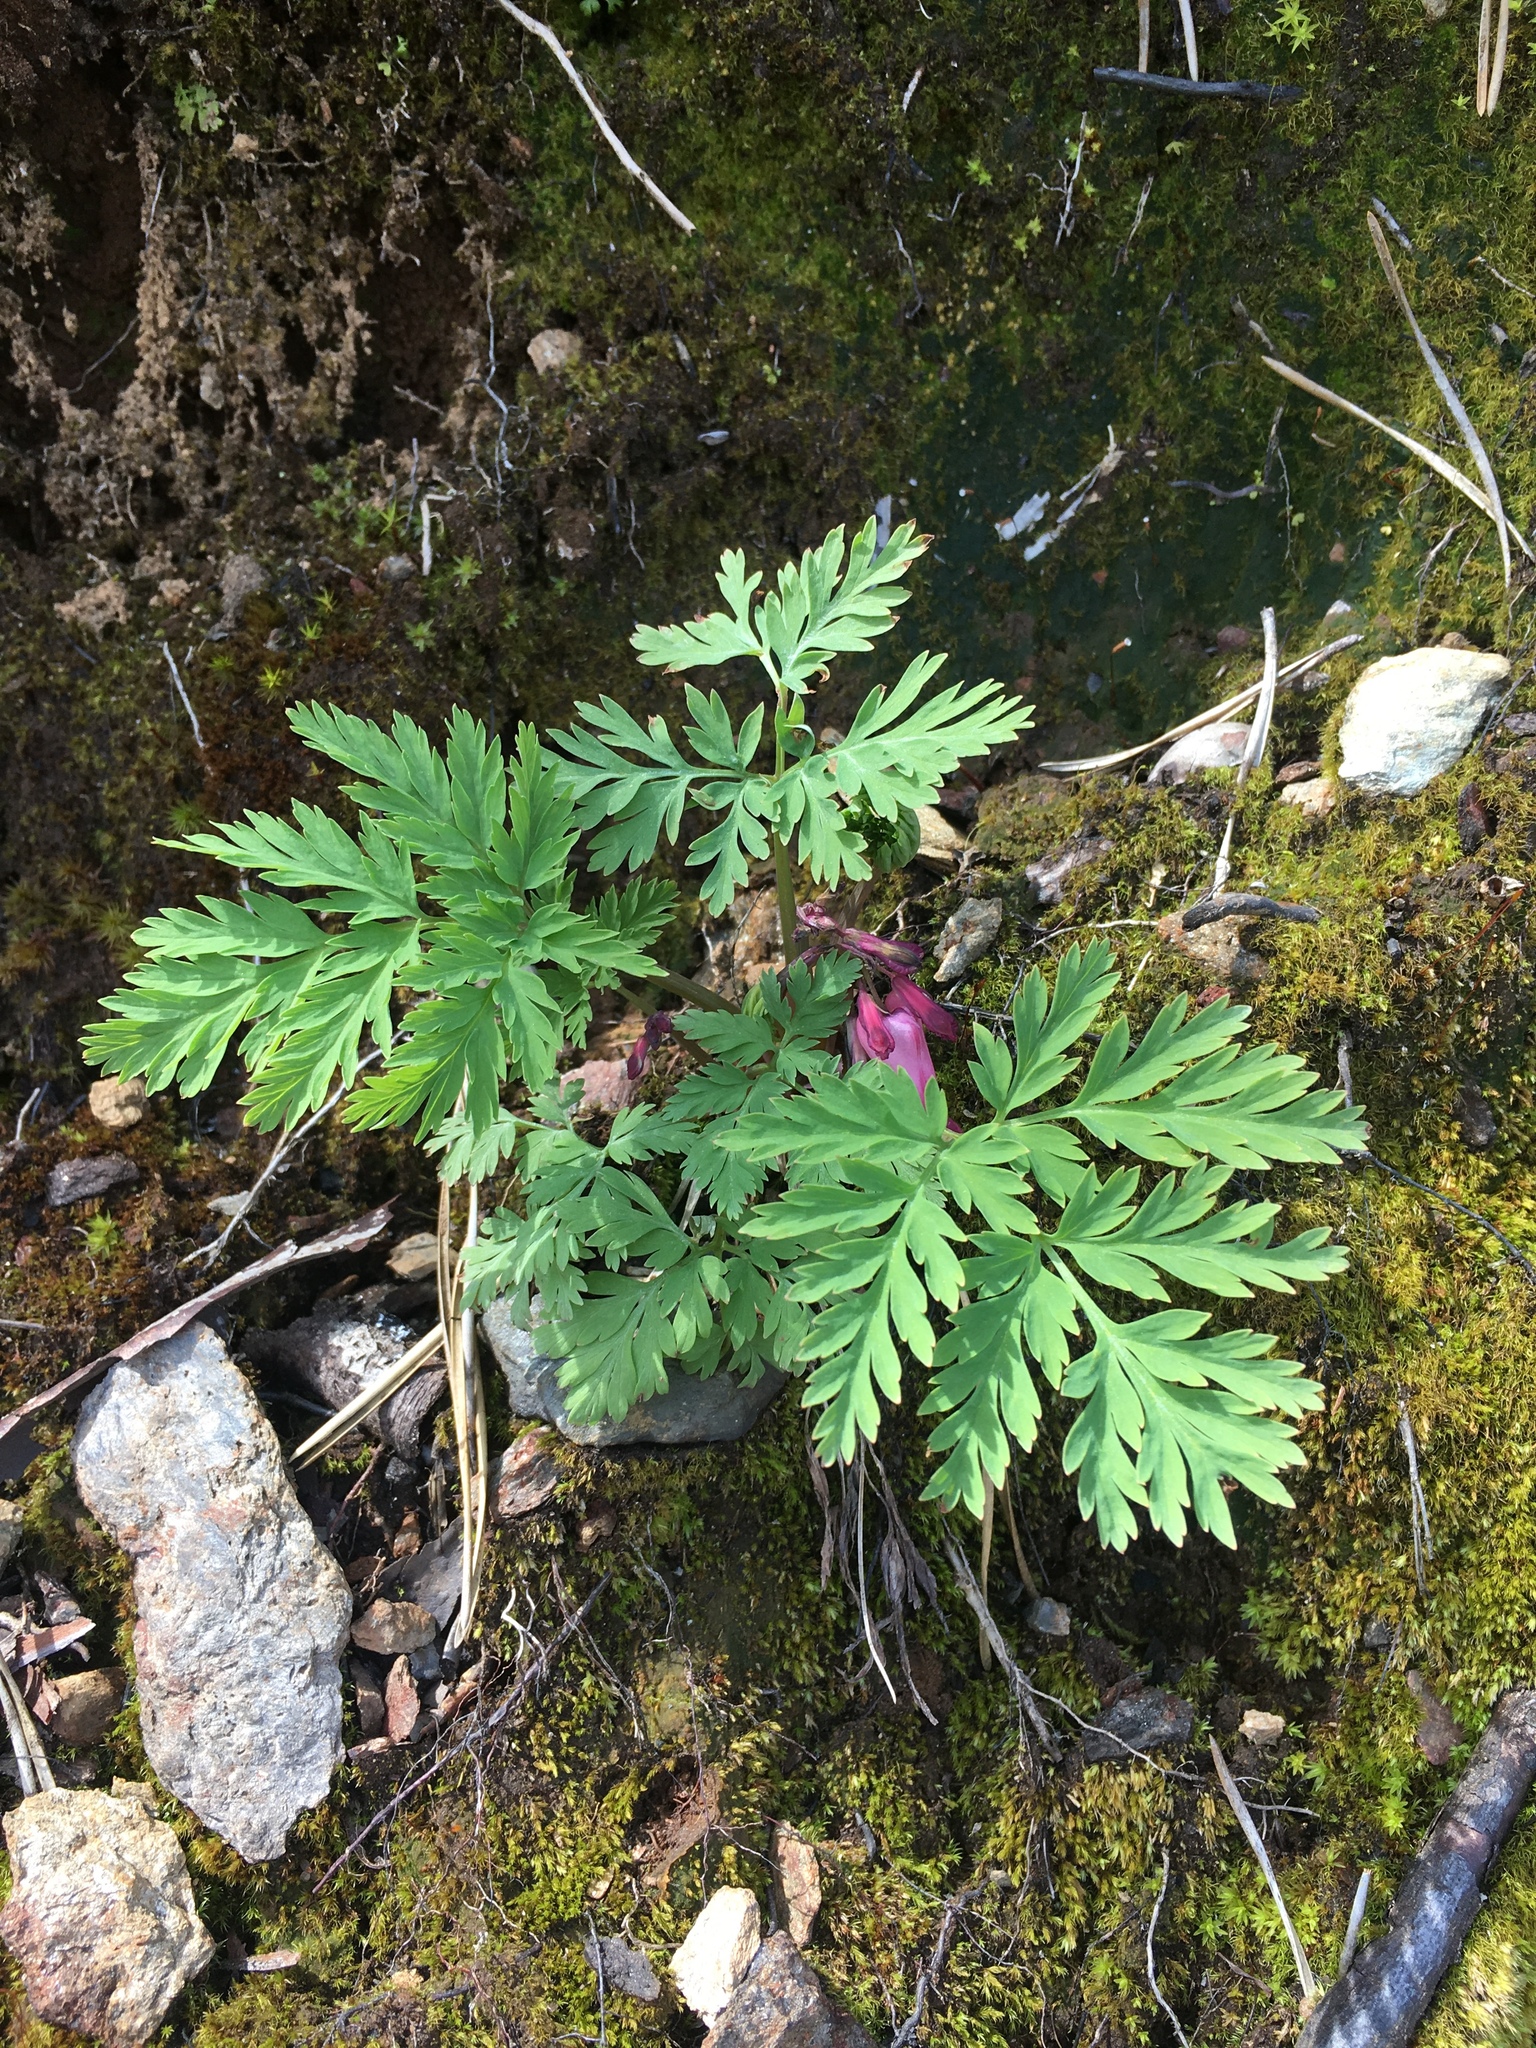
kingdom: Plantae
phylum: Tracheophyta
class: Magnoliopsida
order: Ranunculales
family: Papaveraceae
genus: Dicentra
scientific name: Dicentra eximia
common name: Turkey-corn
